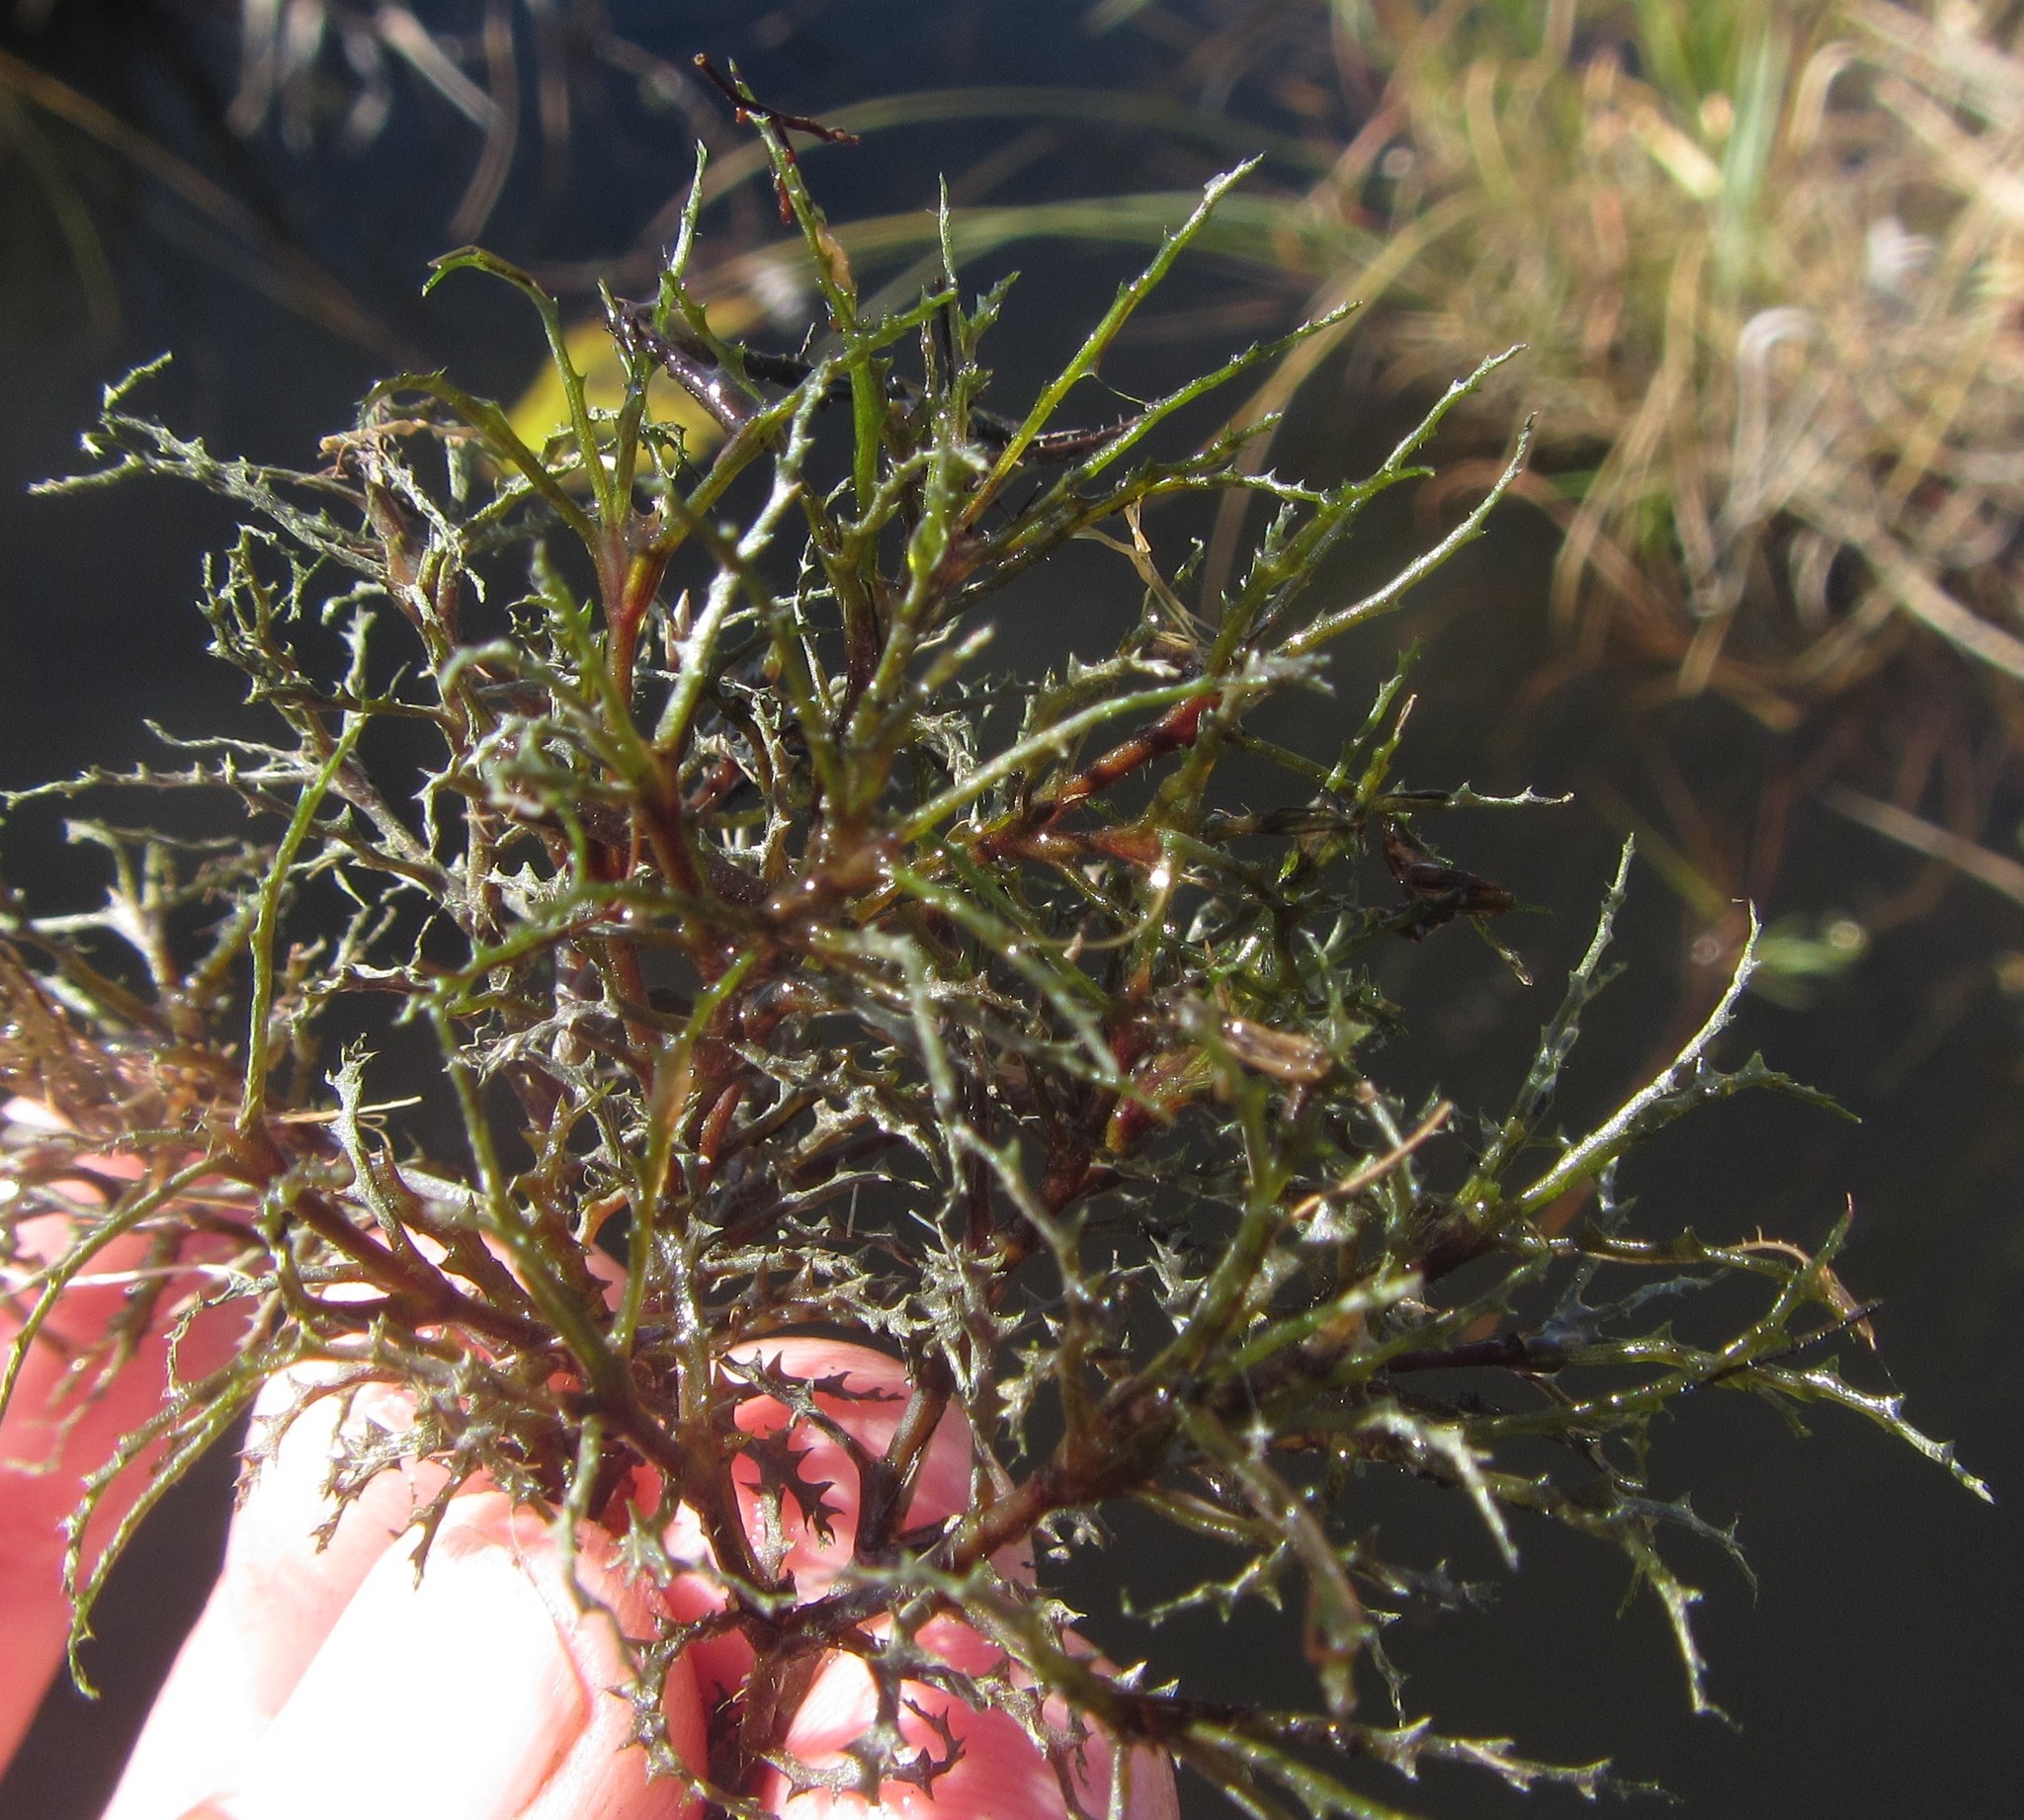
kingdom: Plantae
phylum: Tracheophyta
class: Liliopsida
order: Alismatales
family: Hydrocharitaceae
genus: Najas
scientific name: Najas horrida
